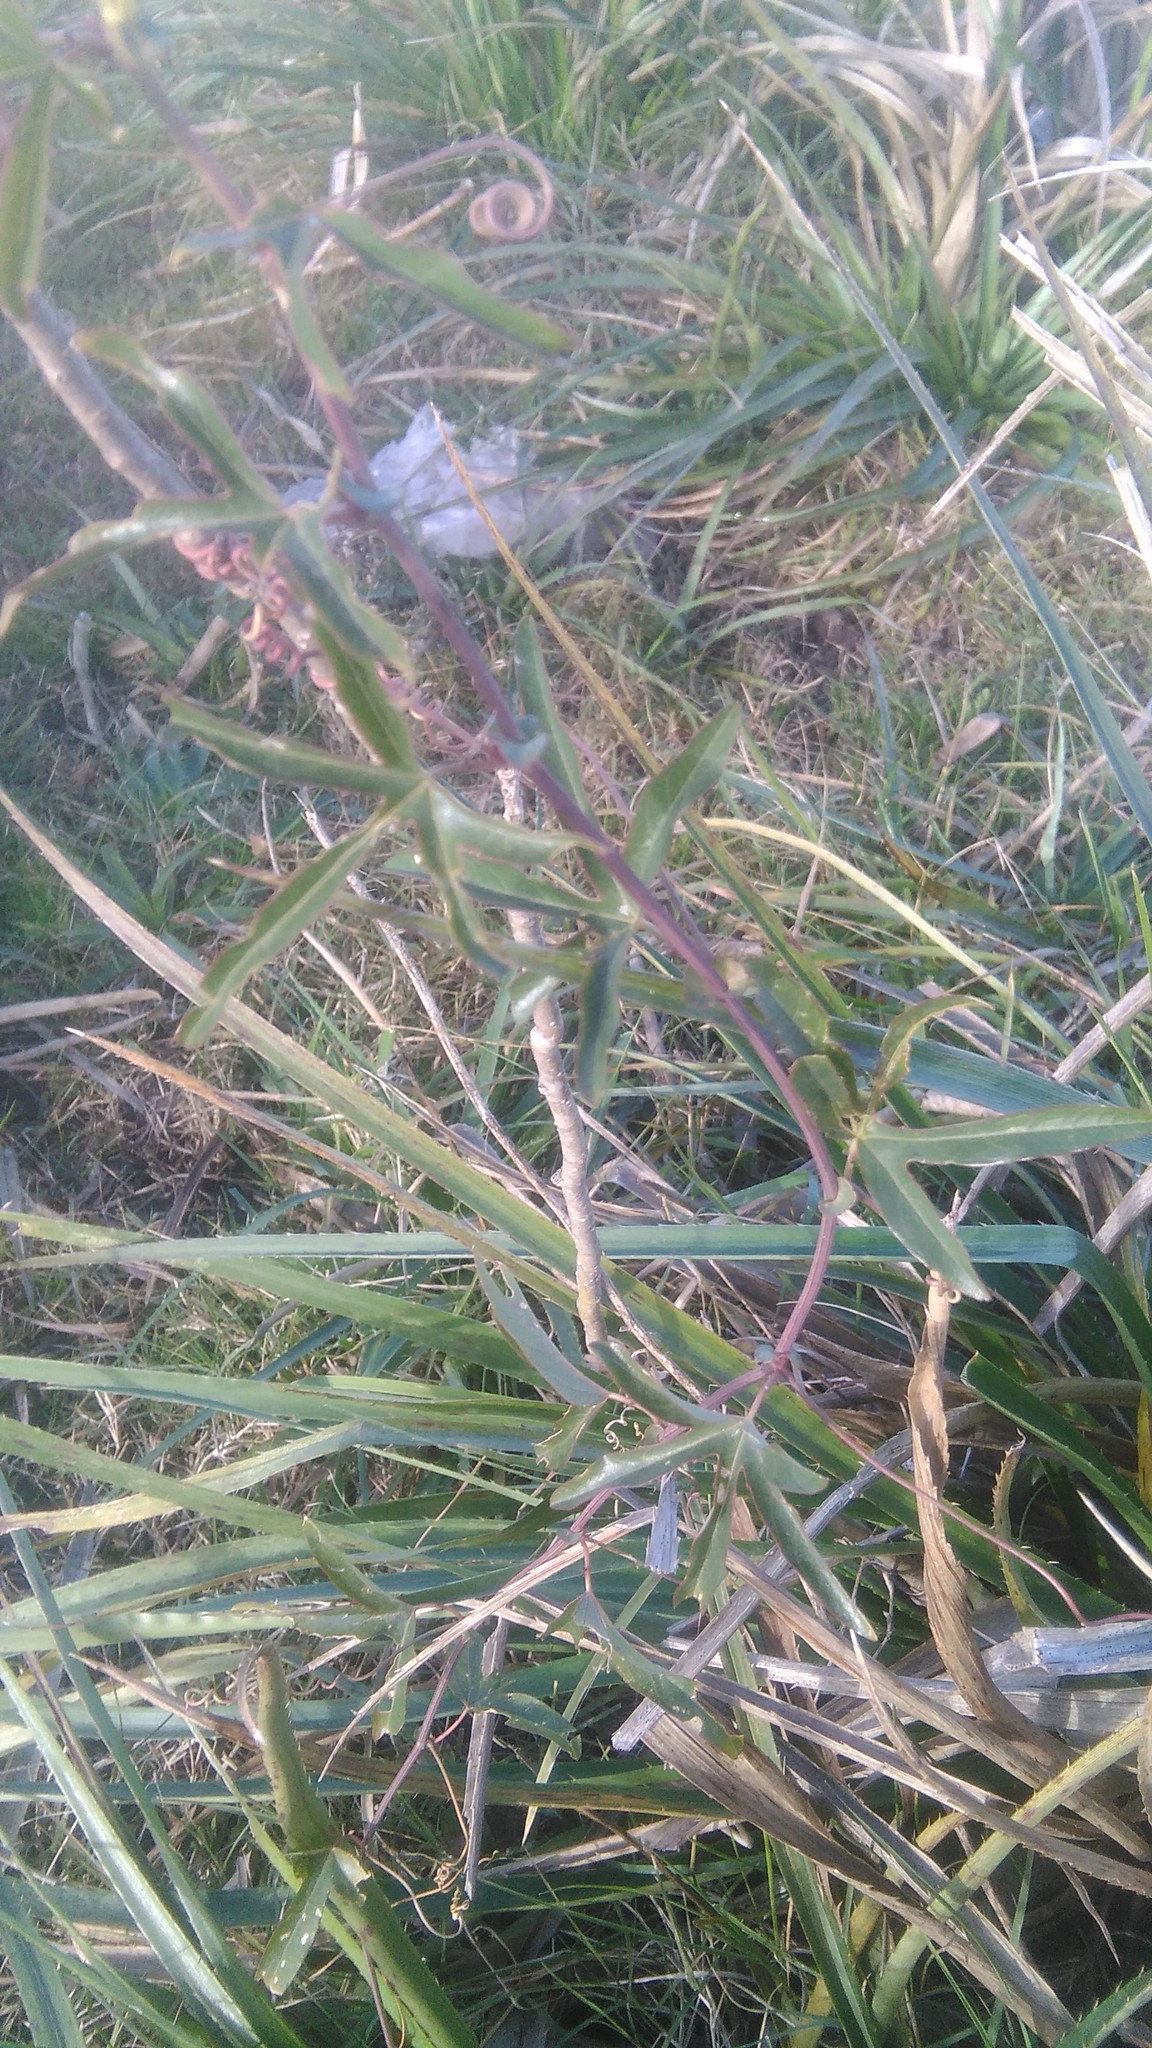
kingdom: Plantae
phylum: Tracheophyta
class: Magnoliopsida
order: Malpighiales
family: Passifloraceae
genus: Passiflora
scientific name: Passiflora caerulea
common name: Blue passionflower
